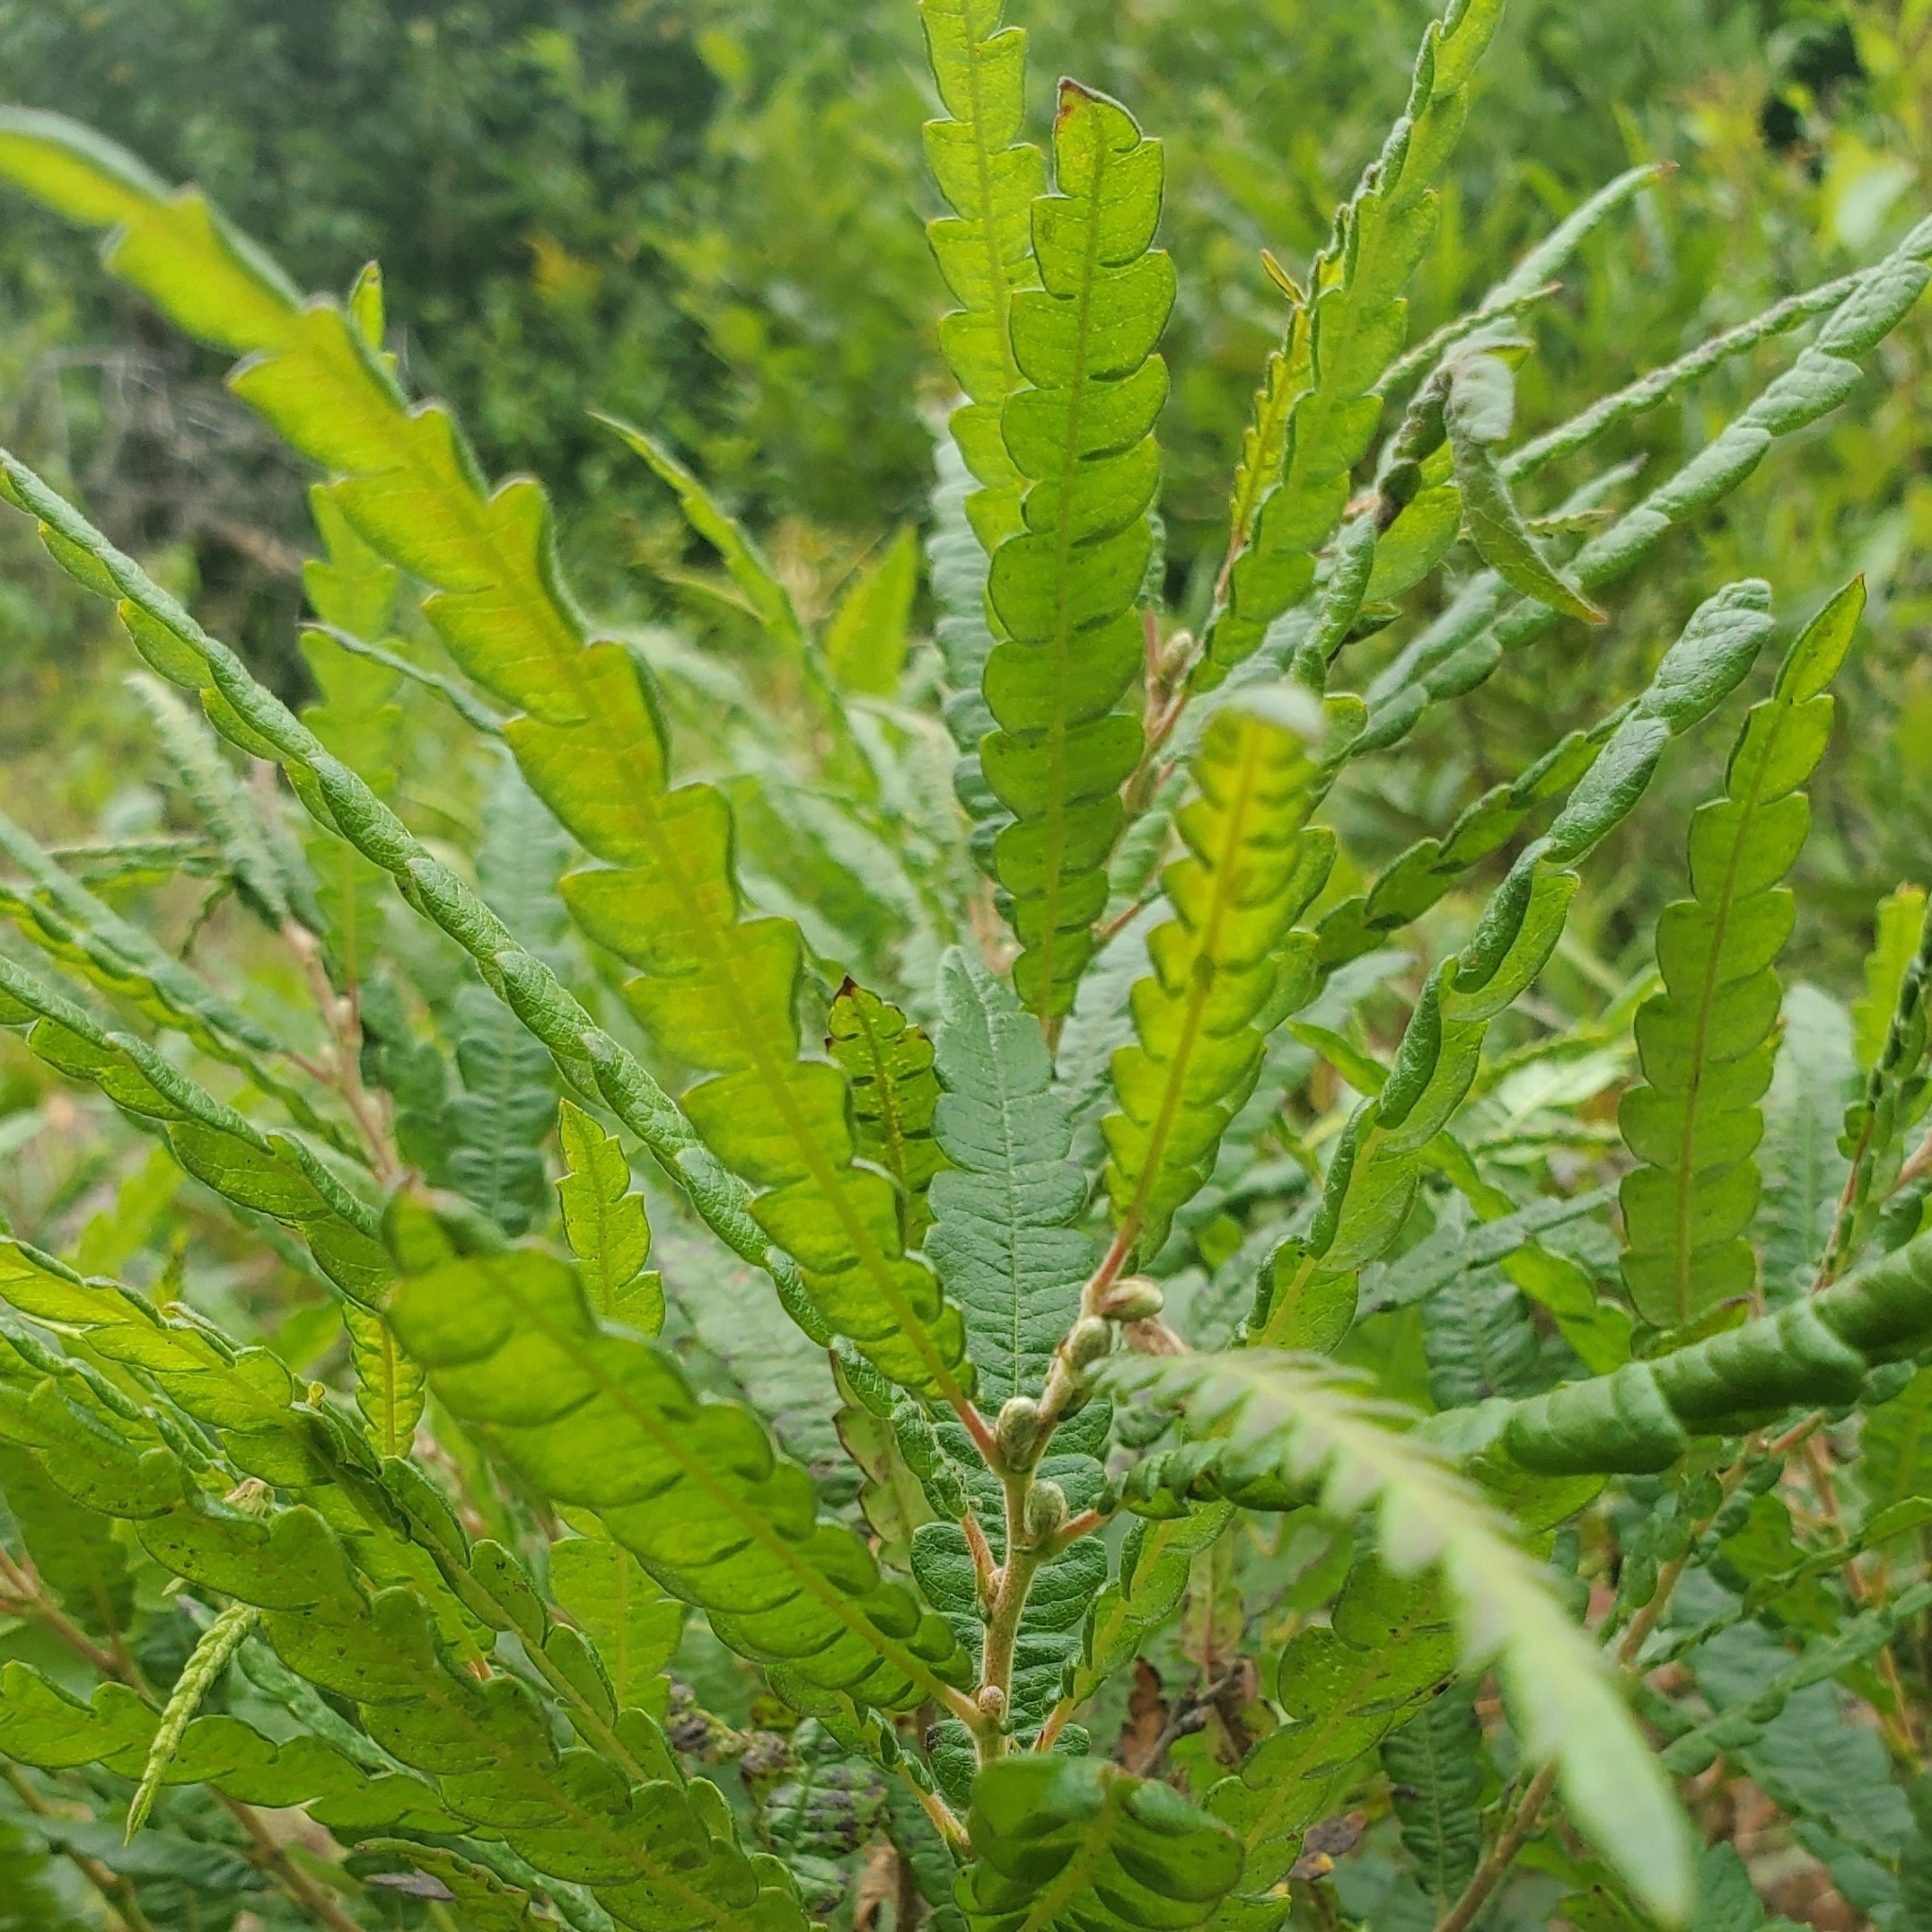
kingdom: Plantae
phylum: Tracheophyta
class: Magnoliopsida
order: Fagales
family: Myricaceae
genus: Comptonia
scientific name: Comptonia peregrina
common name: Sweet-fern
